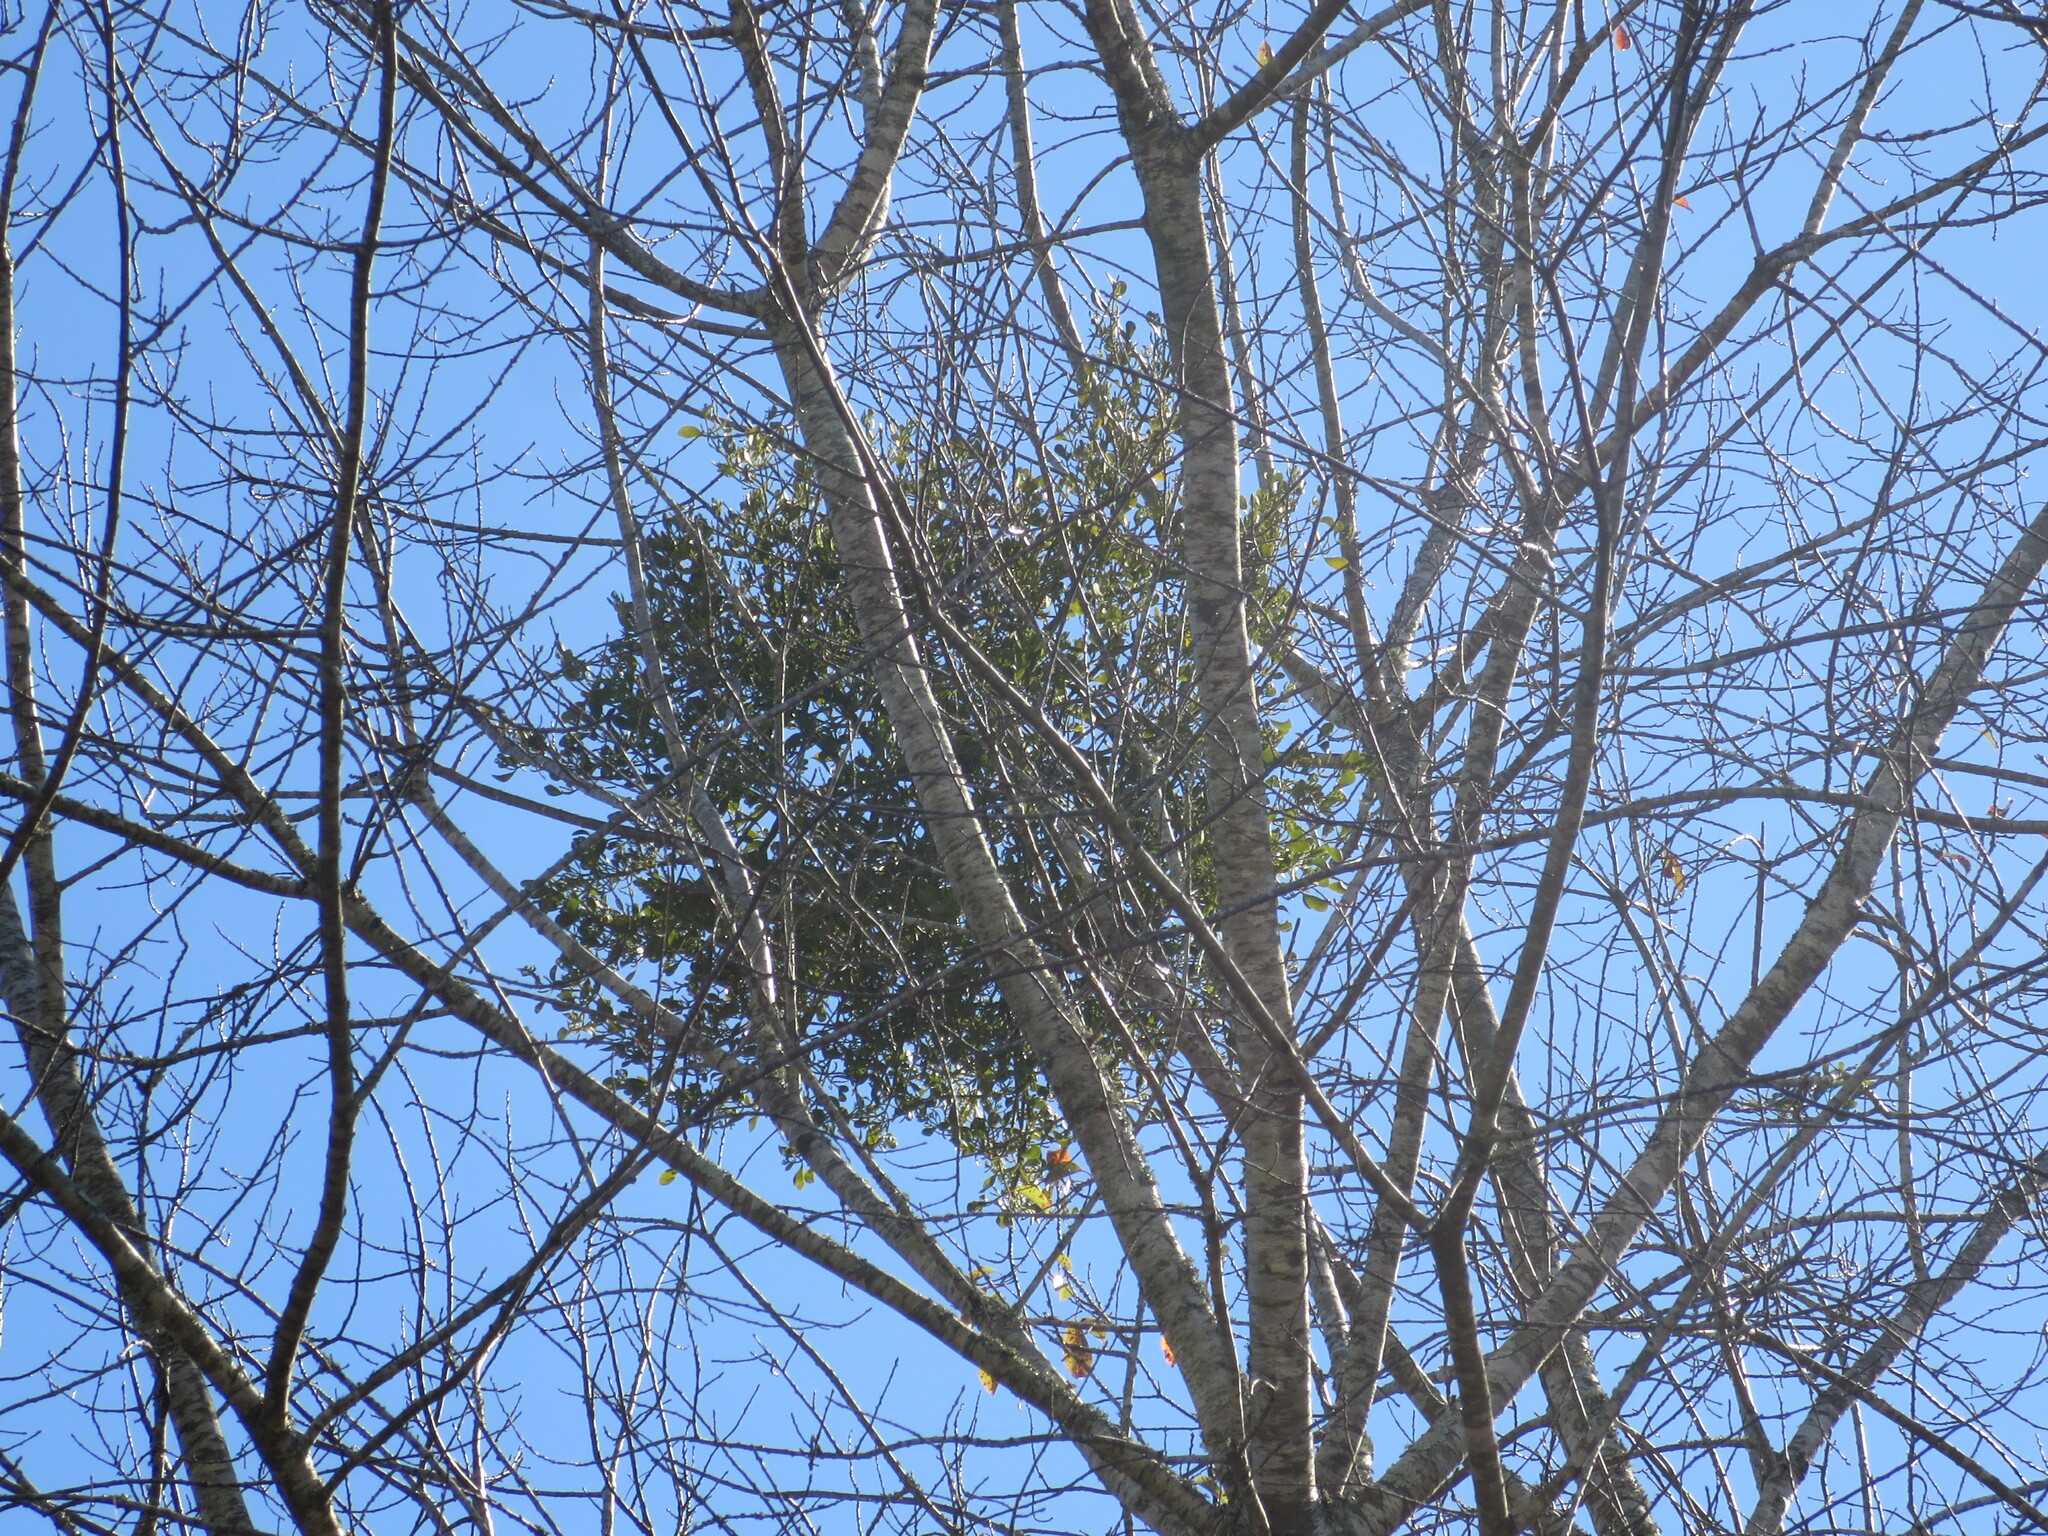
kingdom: Plantae
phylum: Tracheophyta
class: Magnoliopsida
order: Santalales
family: Viscaceae
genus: Phoradendron
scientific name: Phoradendron leucarpum
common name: Pacific mistletoe
